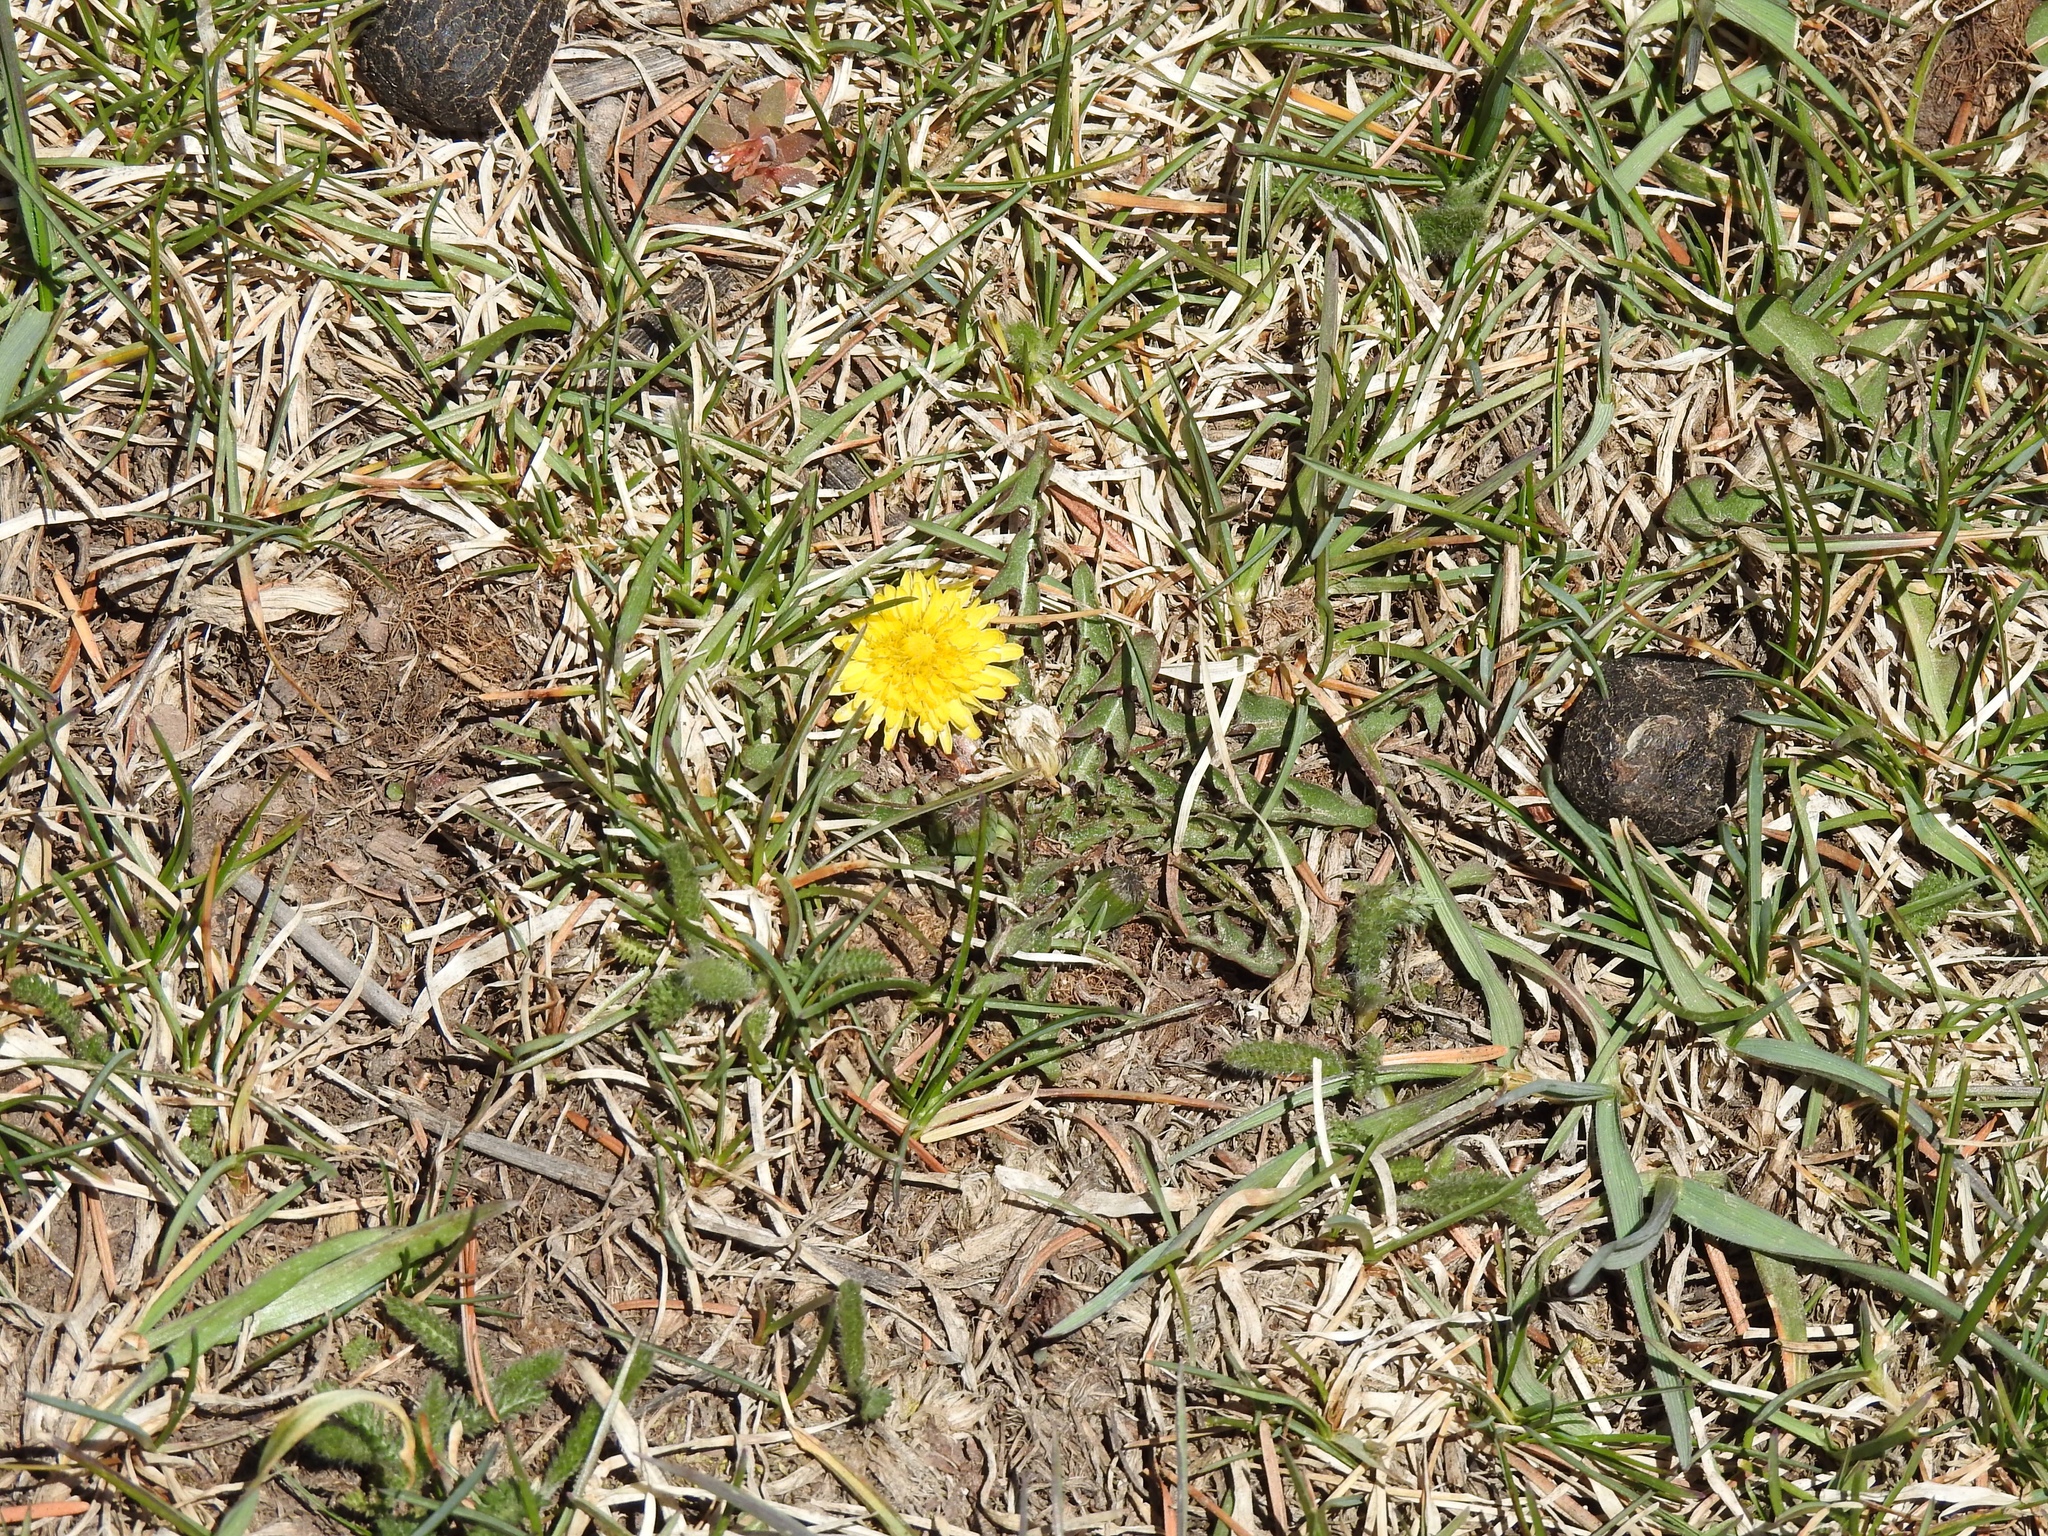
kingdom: Plantae
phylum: Tracheophyta
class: Magnoliopsida
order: Asterales
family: Asteraceae
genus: Taraxacum
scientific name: Taraxacum officinale
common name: Common dandelion
